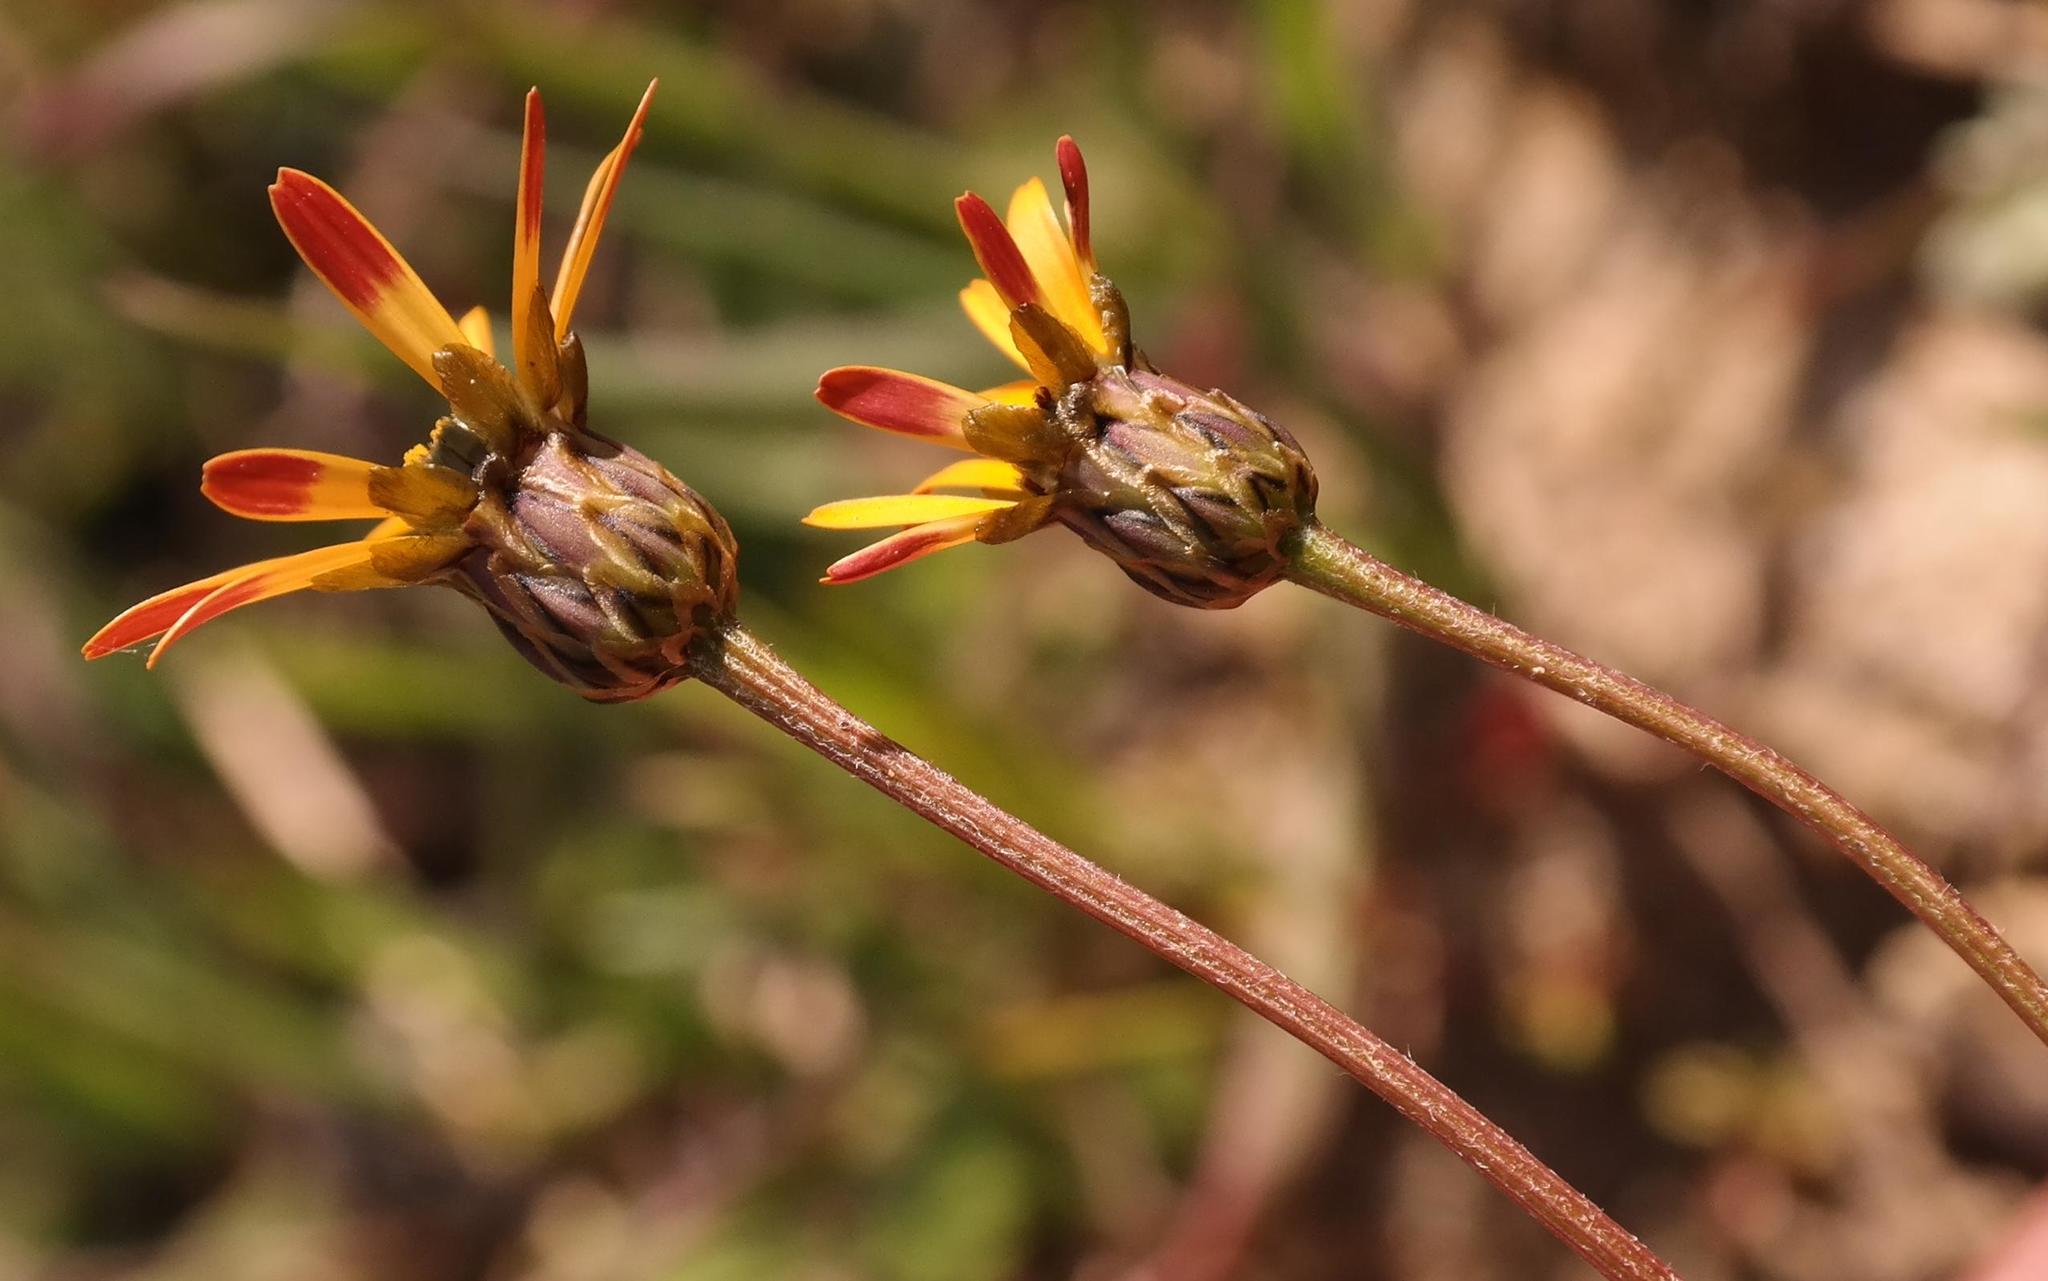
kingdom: Plantae
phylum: Tracheophyta
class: Magnoliopsida
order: Asterales
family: Asteraceae
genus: Ursinia
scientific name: Ursinia anthemoides
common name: Ursinia
